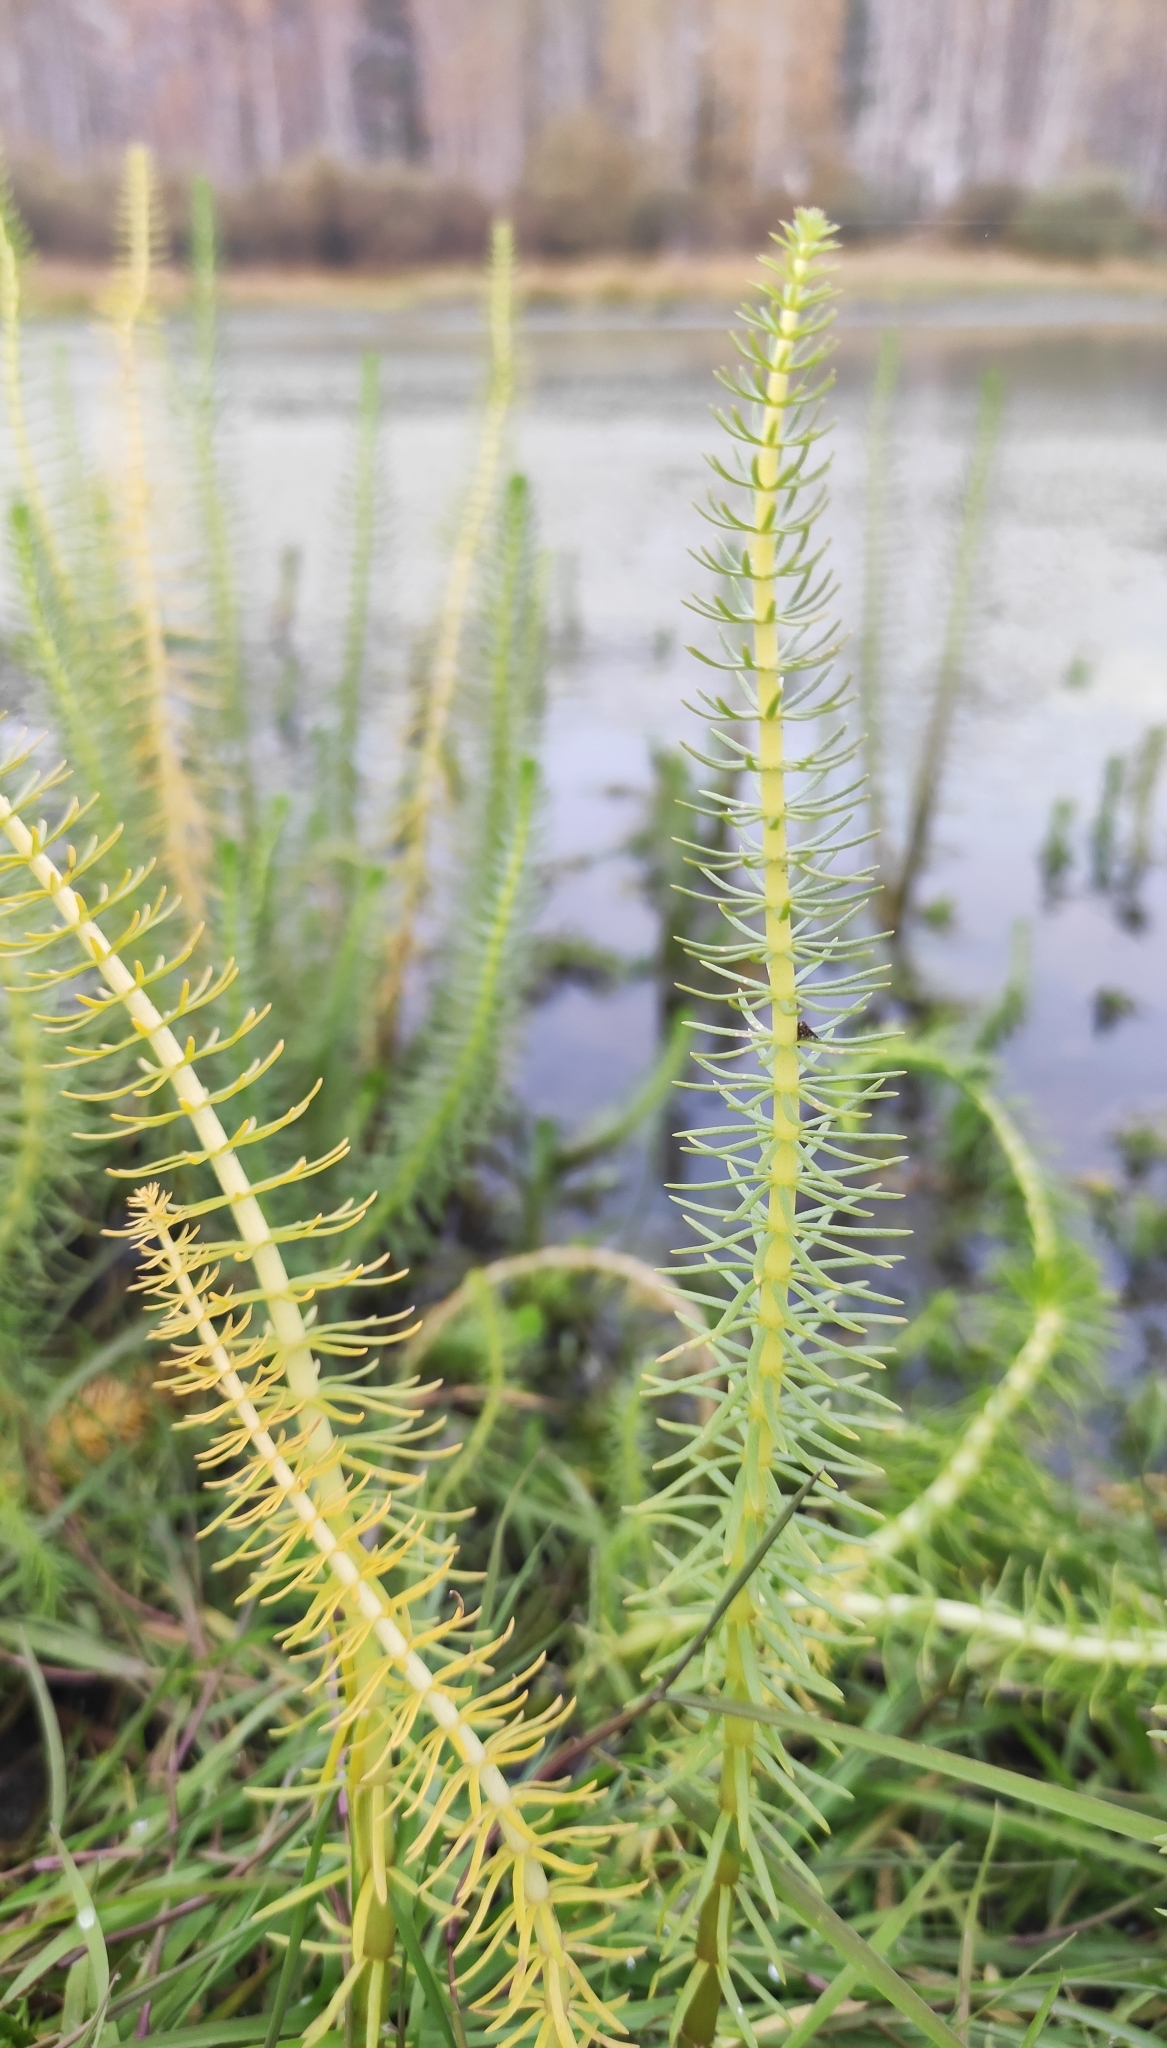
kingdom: Plantae
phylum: Tracheophyta
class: Magnoliopsida
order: Lamiales
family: Plantaginaceae
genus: Hippuris
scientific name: Hippuris vulgaris
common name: Mare's-tail
